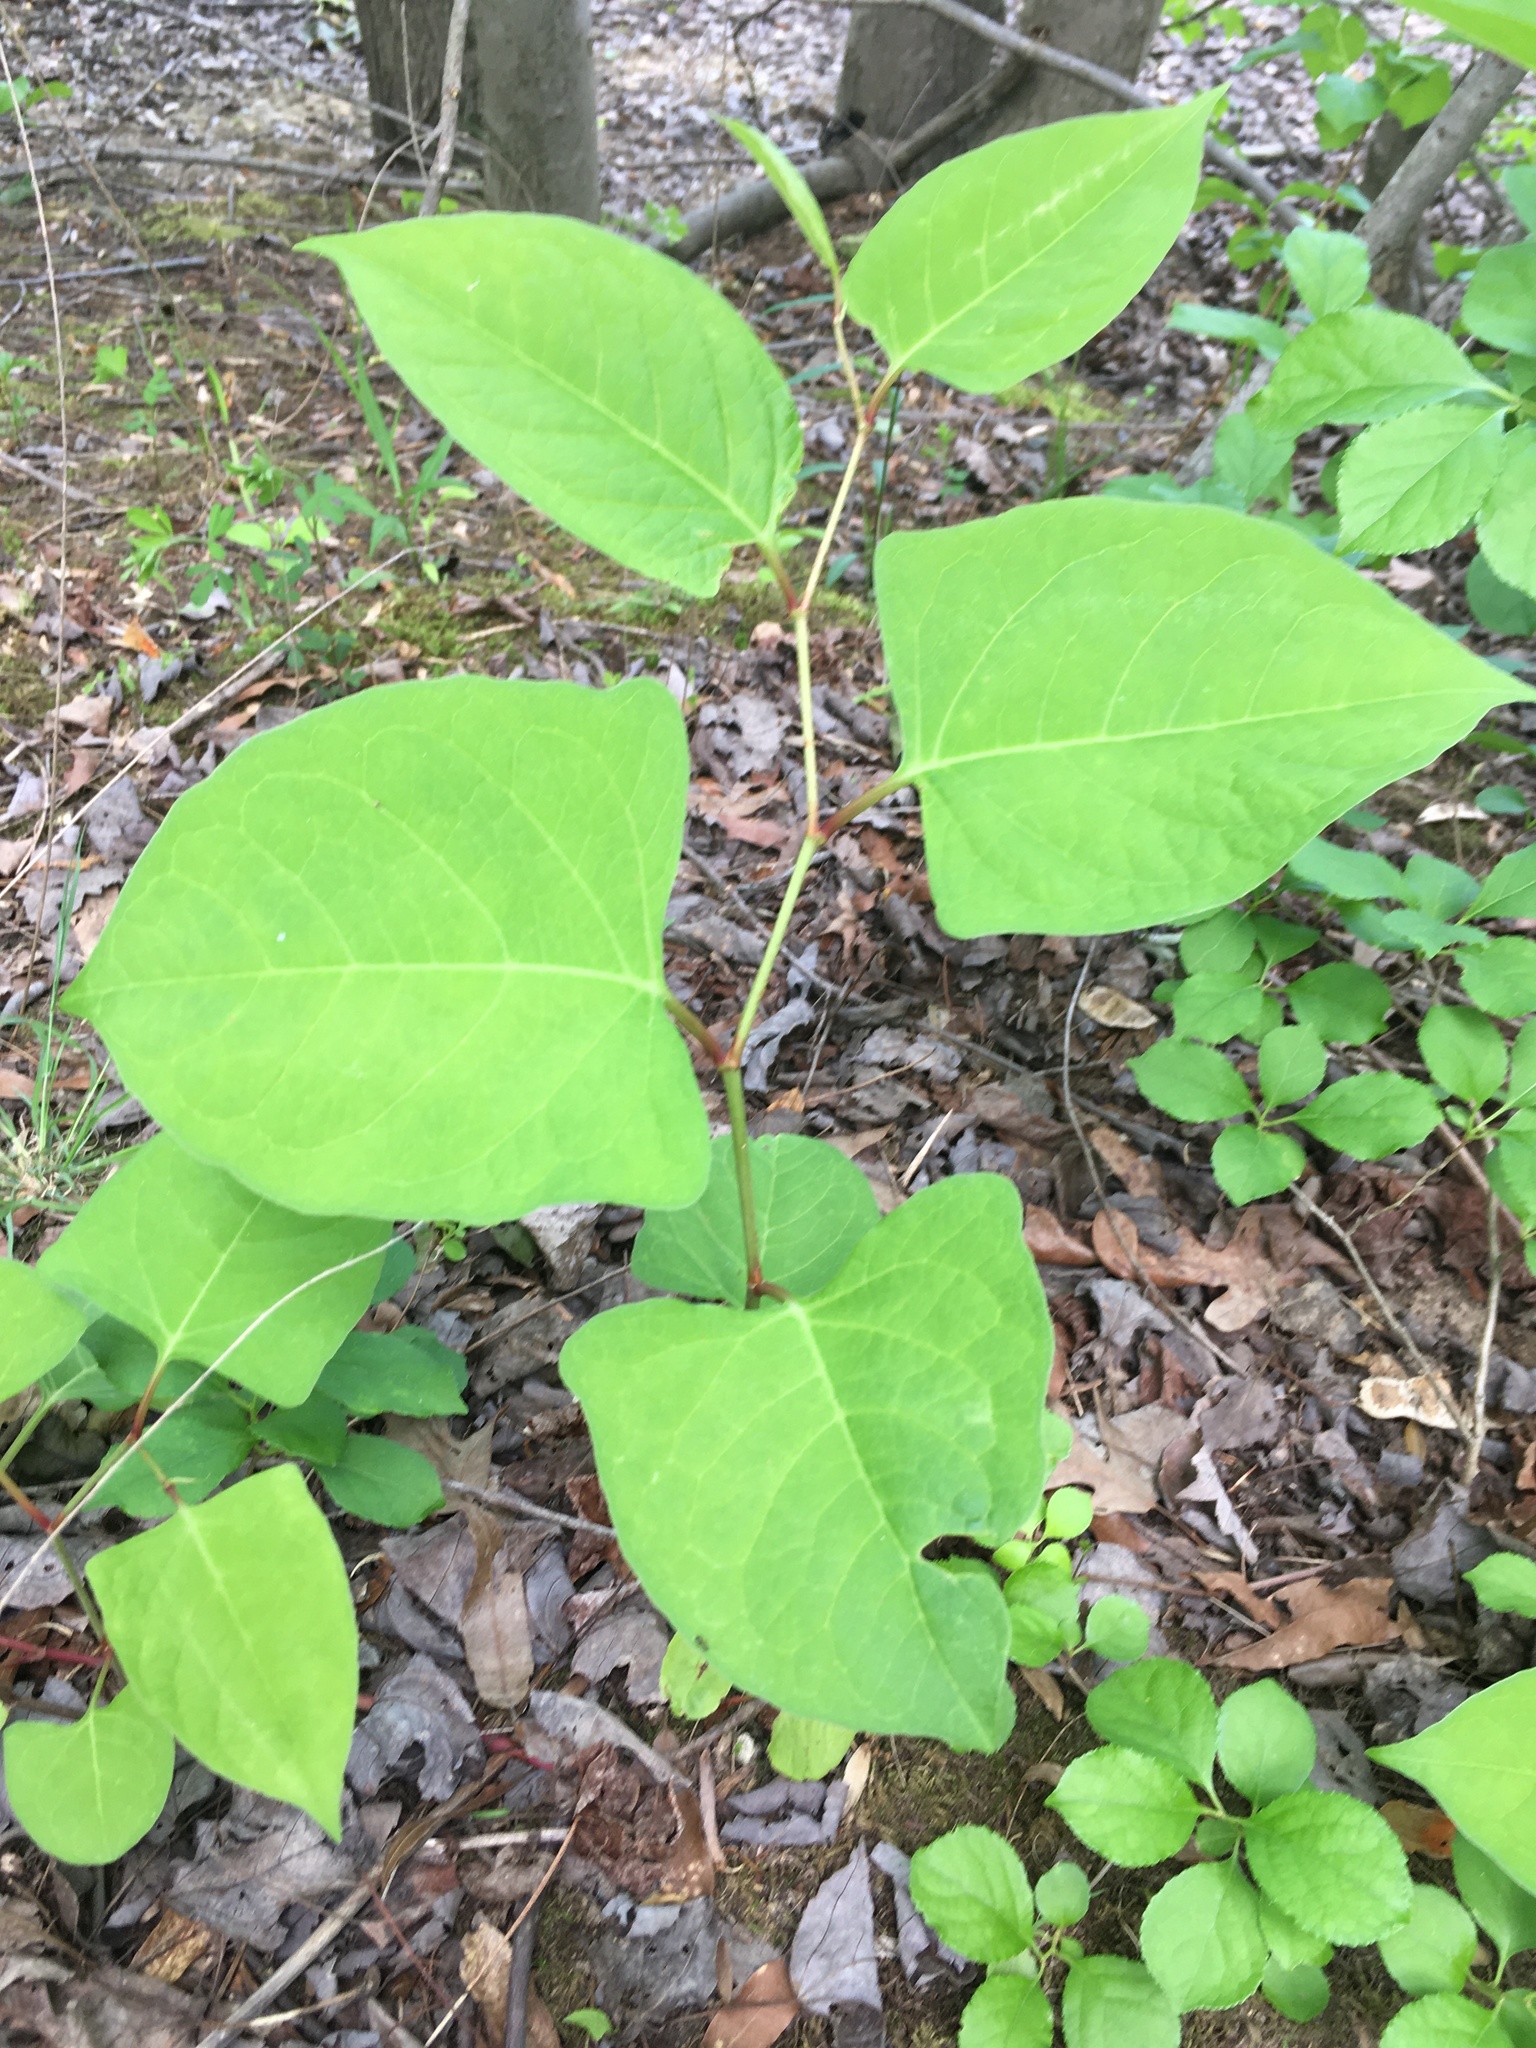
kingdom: Plantae
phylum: Tracheophyta
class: Magnoliopsida
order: Caryophyllales
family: Polygonaceae
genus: Reynoutria
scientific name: Reynoutria japonica
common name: Japanese knotweed
